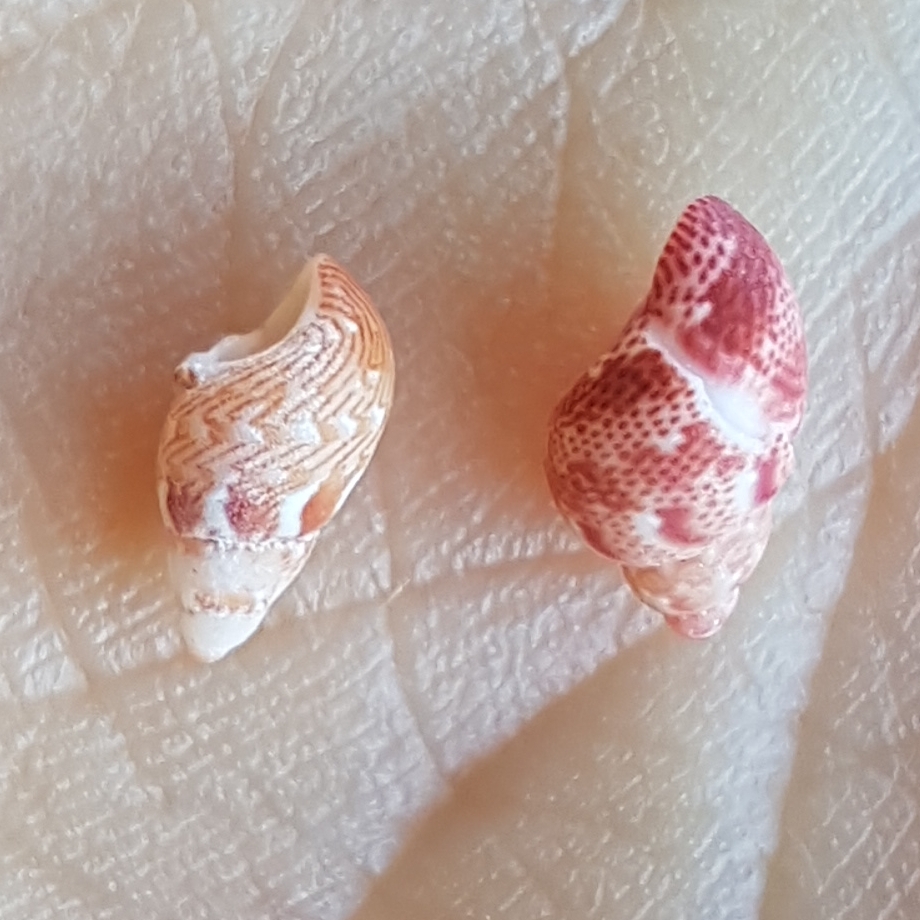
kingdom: Animalia
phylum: Mollusca
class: Gastropoda
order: Trochida
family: Phasianellidae
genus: Tricolia
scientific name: Tricolia tenuis
